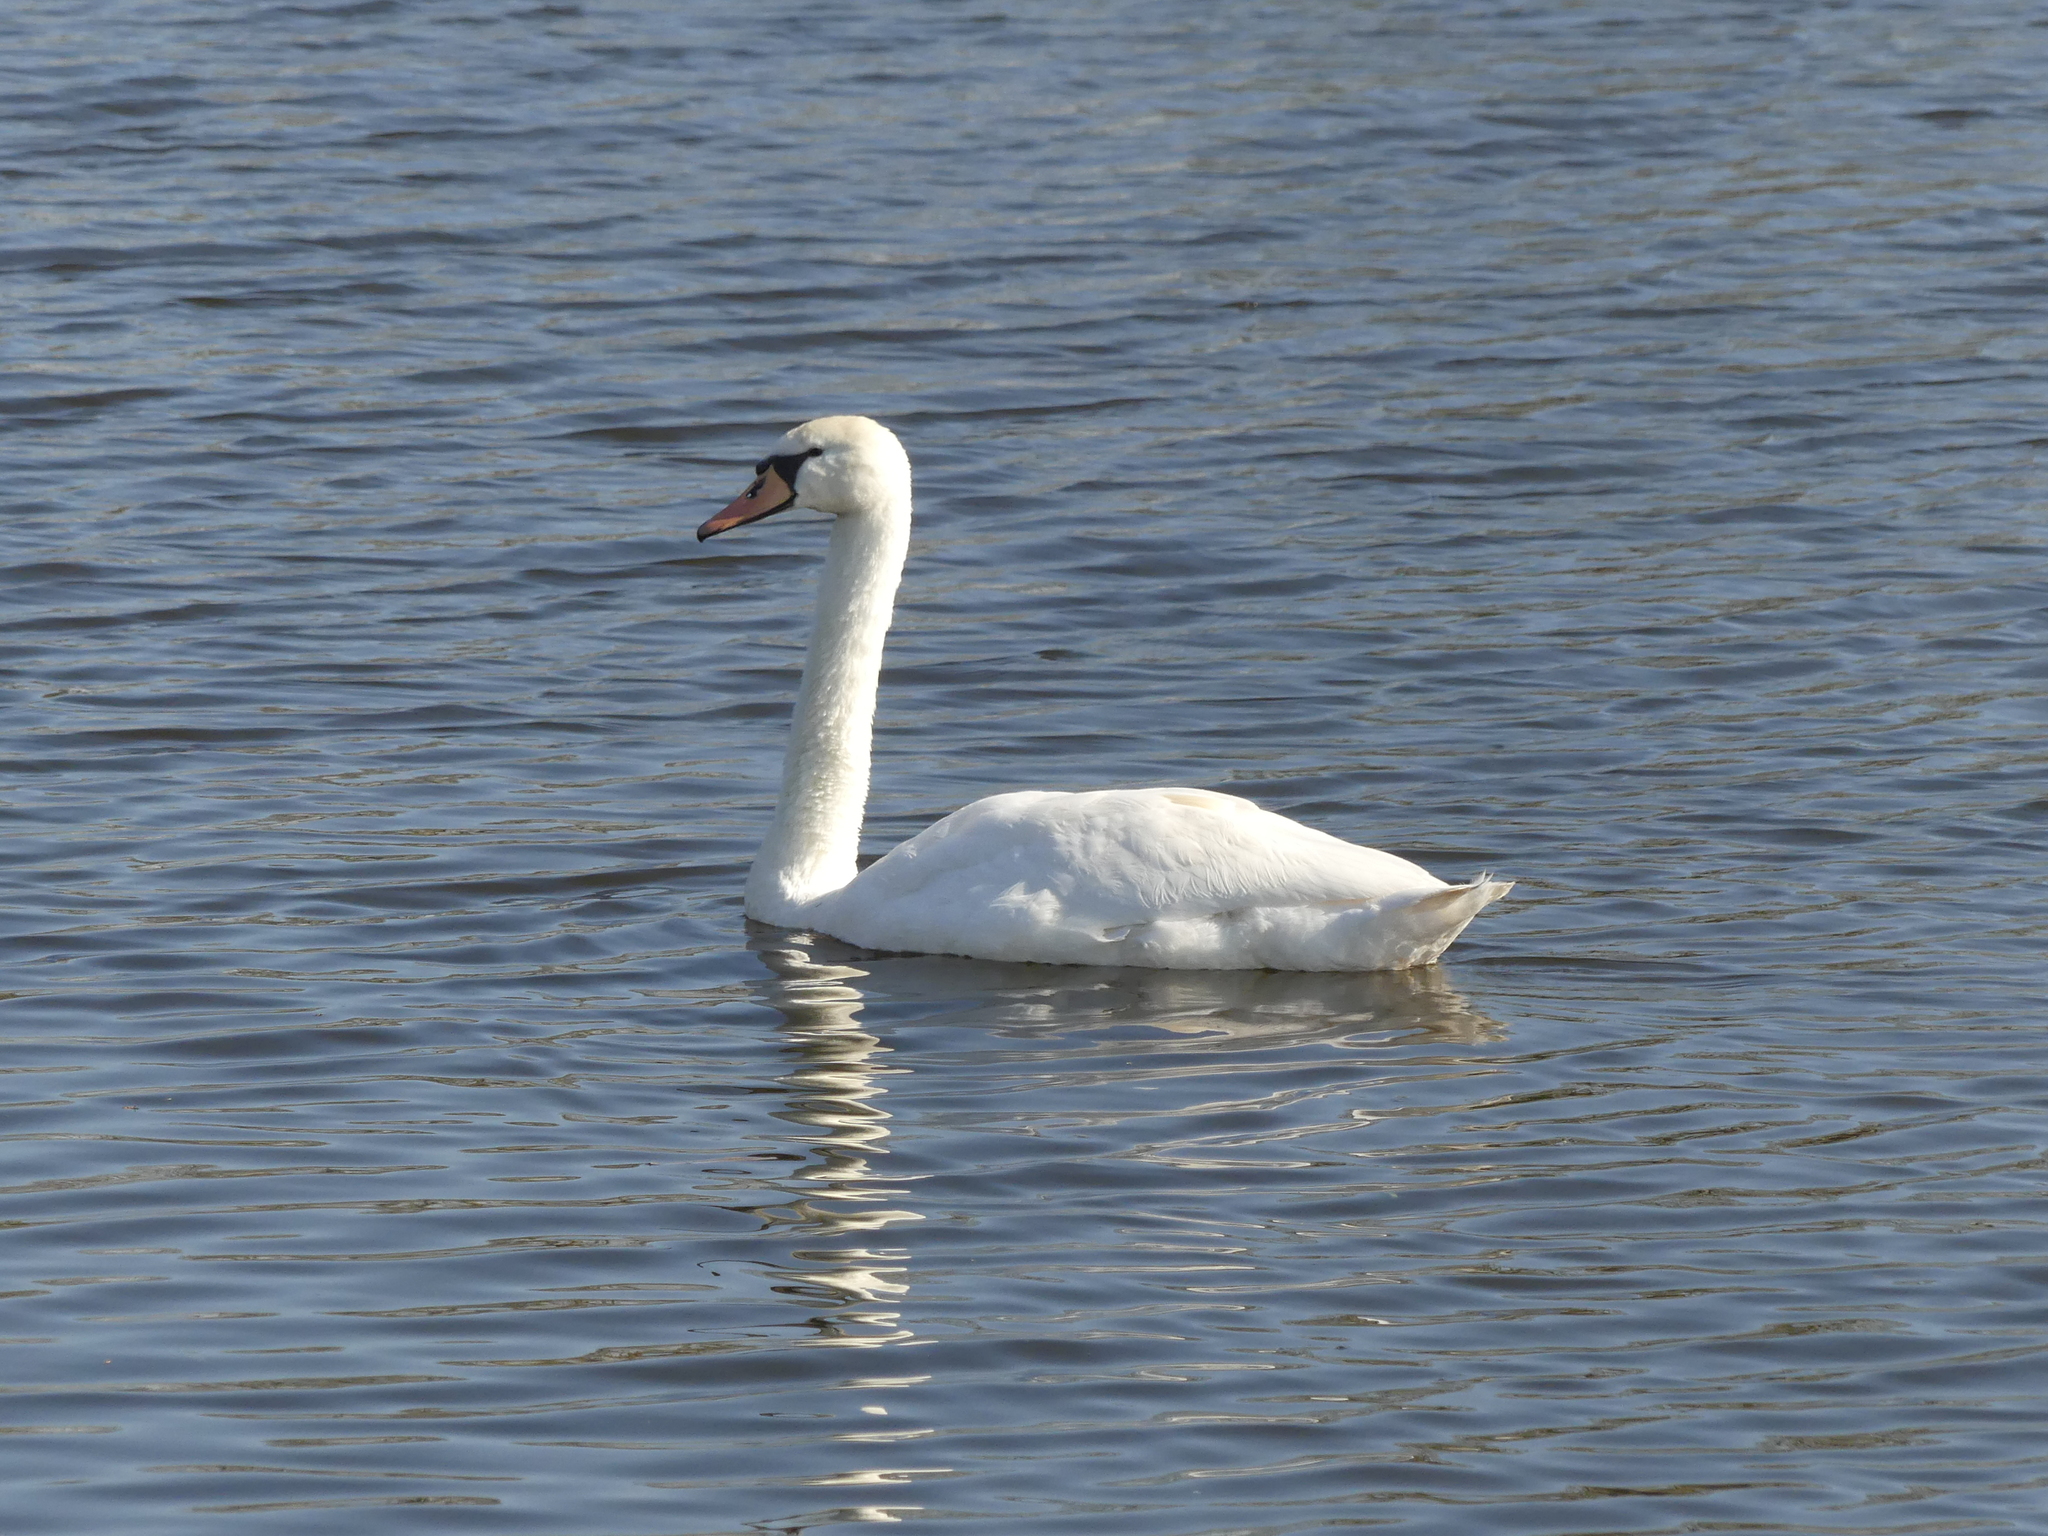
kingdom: Animalia
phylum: Chordata
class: Aves
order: Anseriformes
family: Anatidae
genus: Cygnus
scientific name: Cygnus olor
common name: Mute swan
